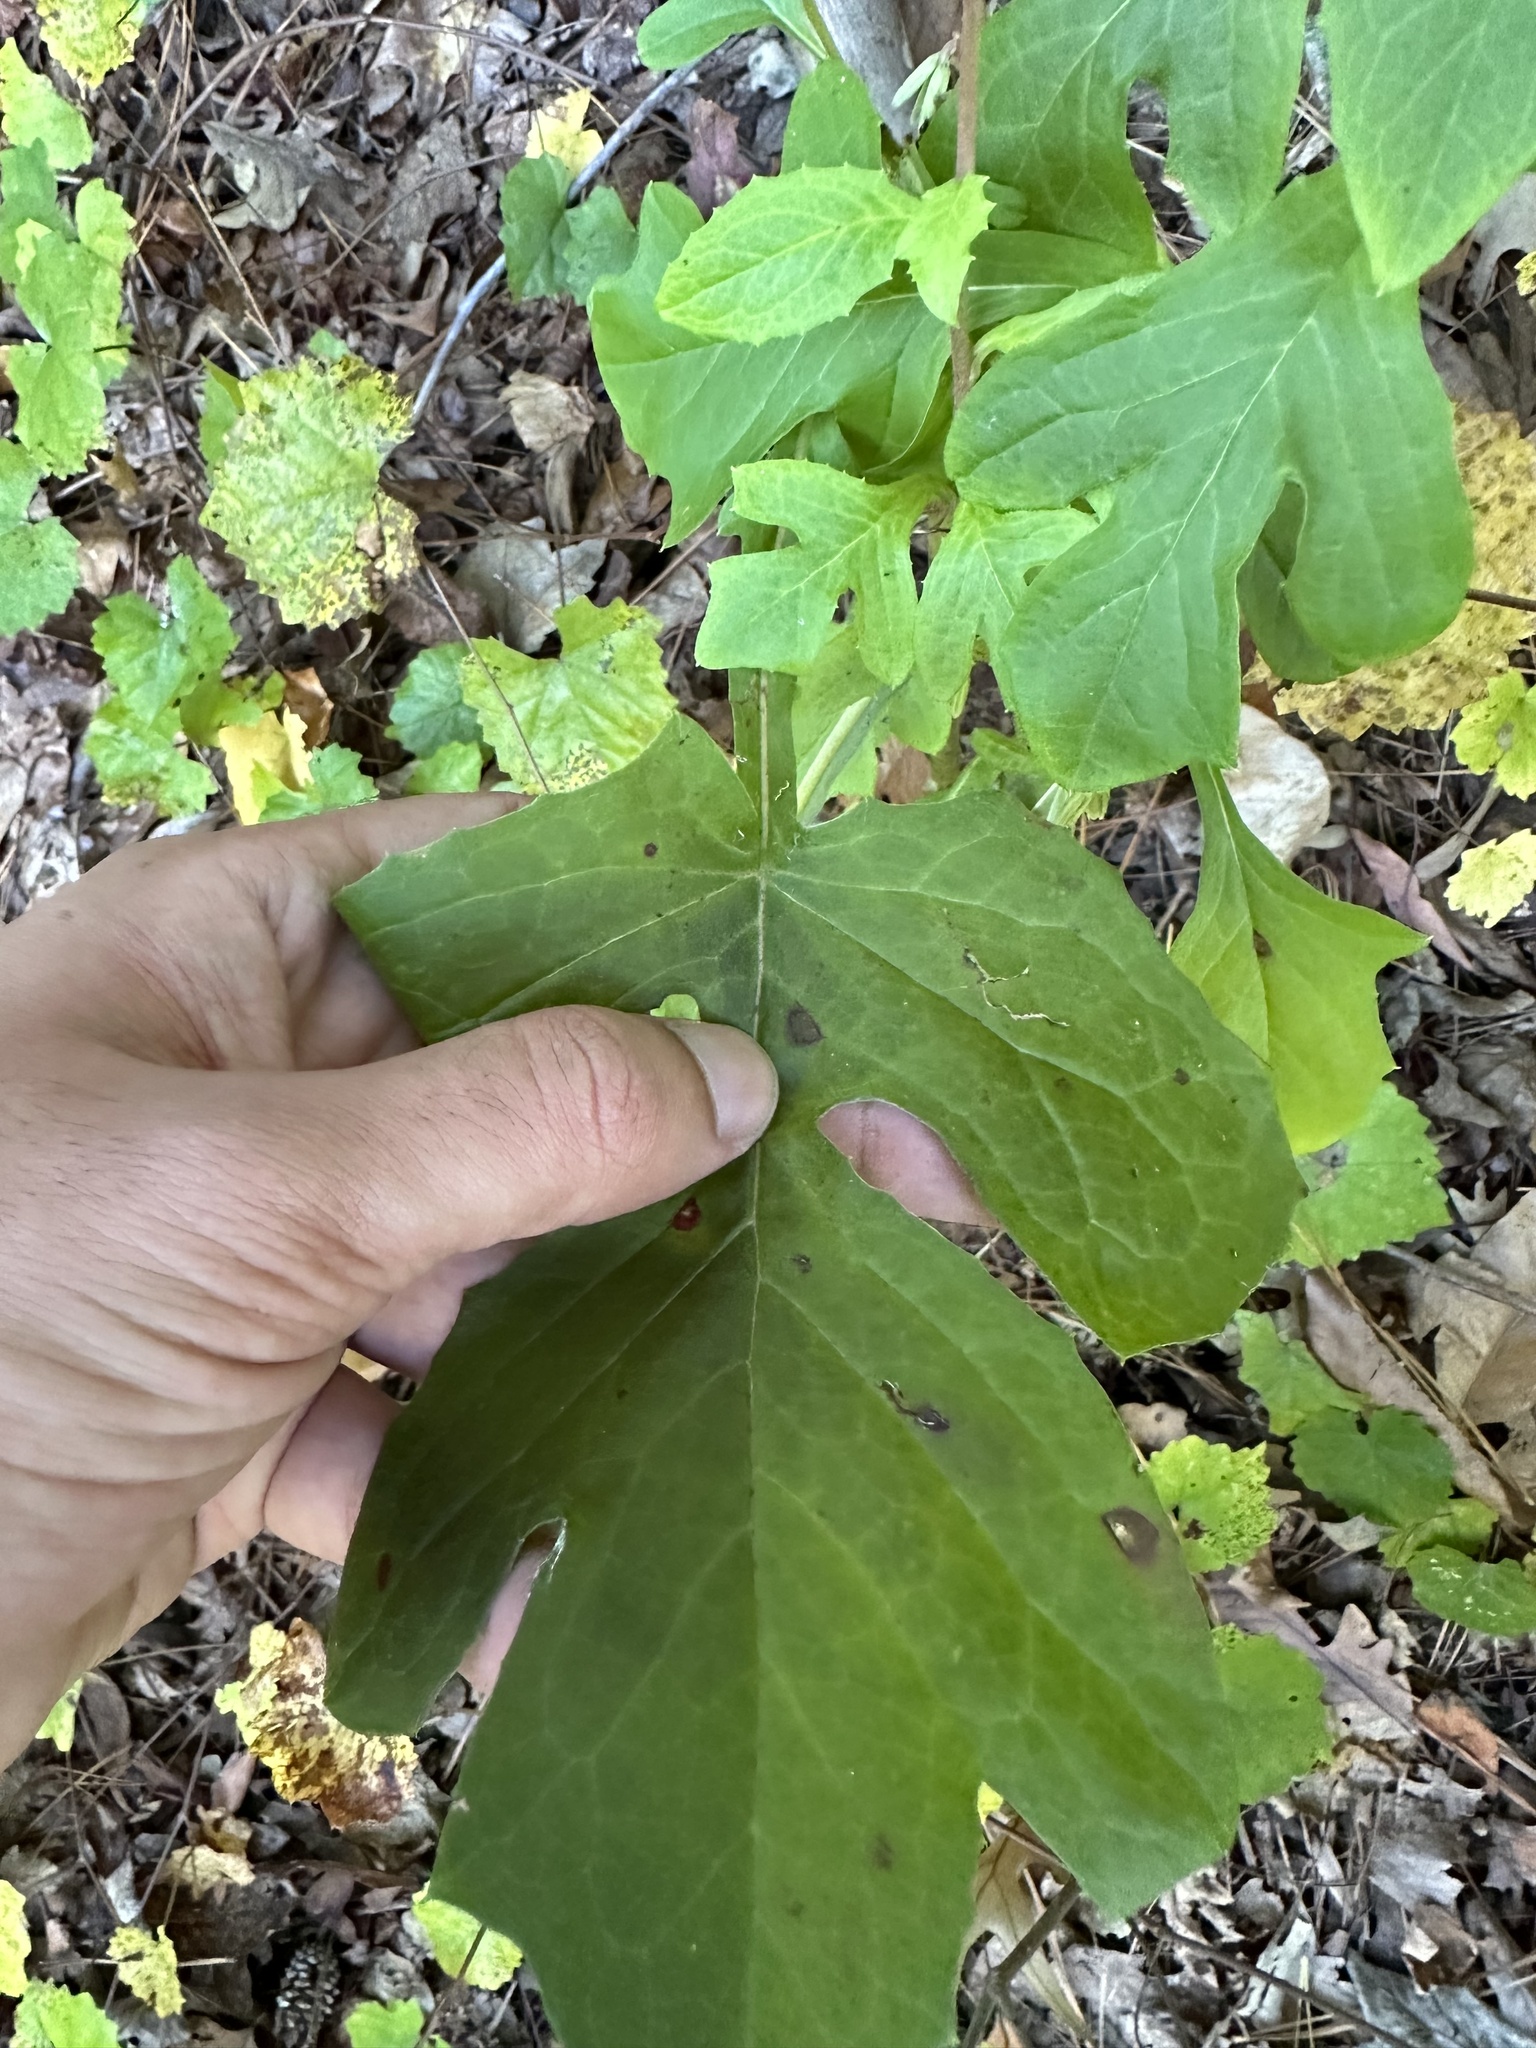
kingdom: Plantae
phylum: Tracheophyta
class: Magnoliopsida
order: Asterales
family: Asteraceae
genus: Nabalus
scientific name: Nabalus serpentarius
